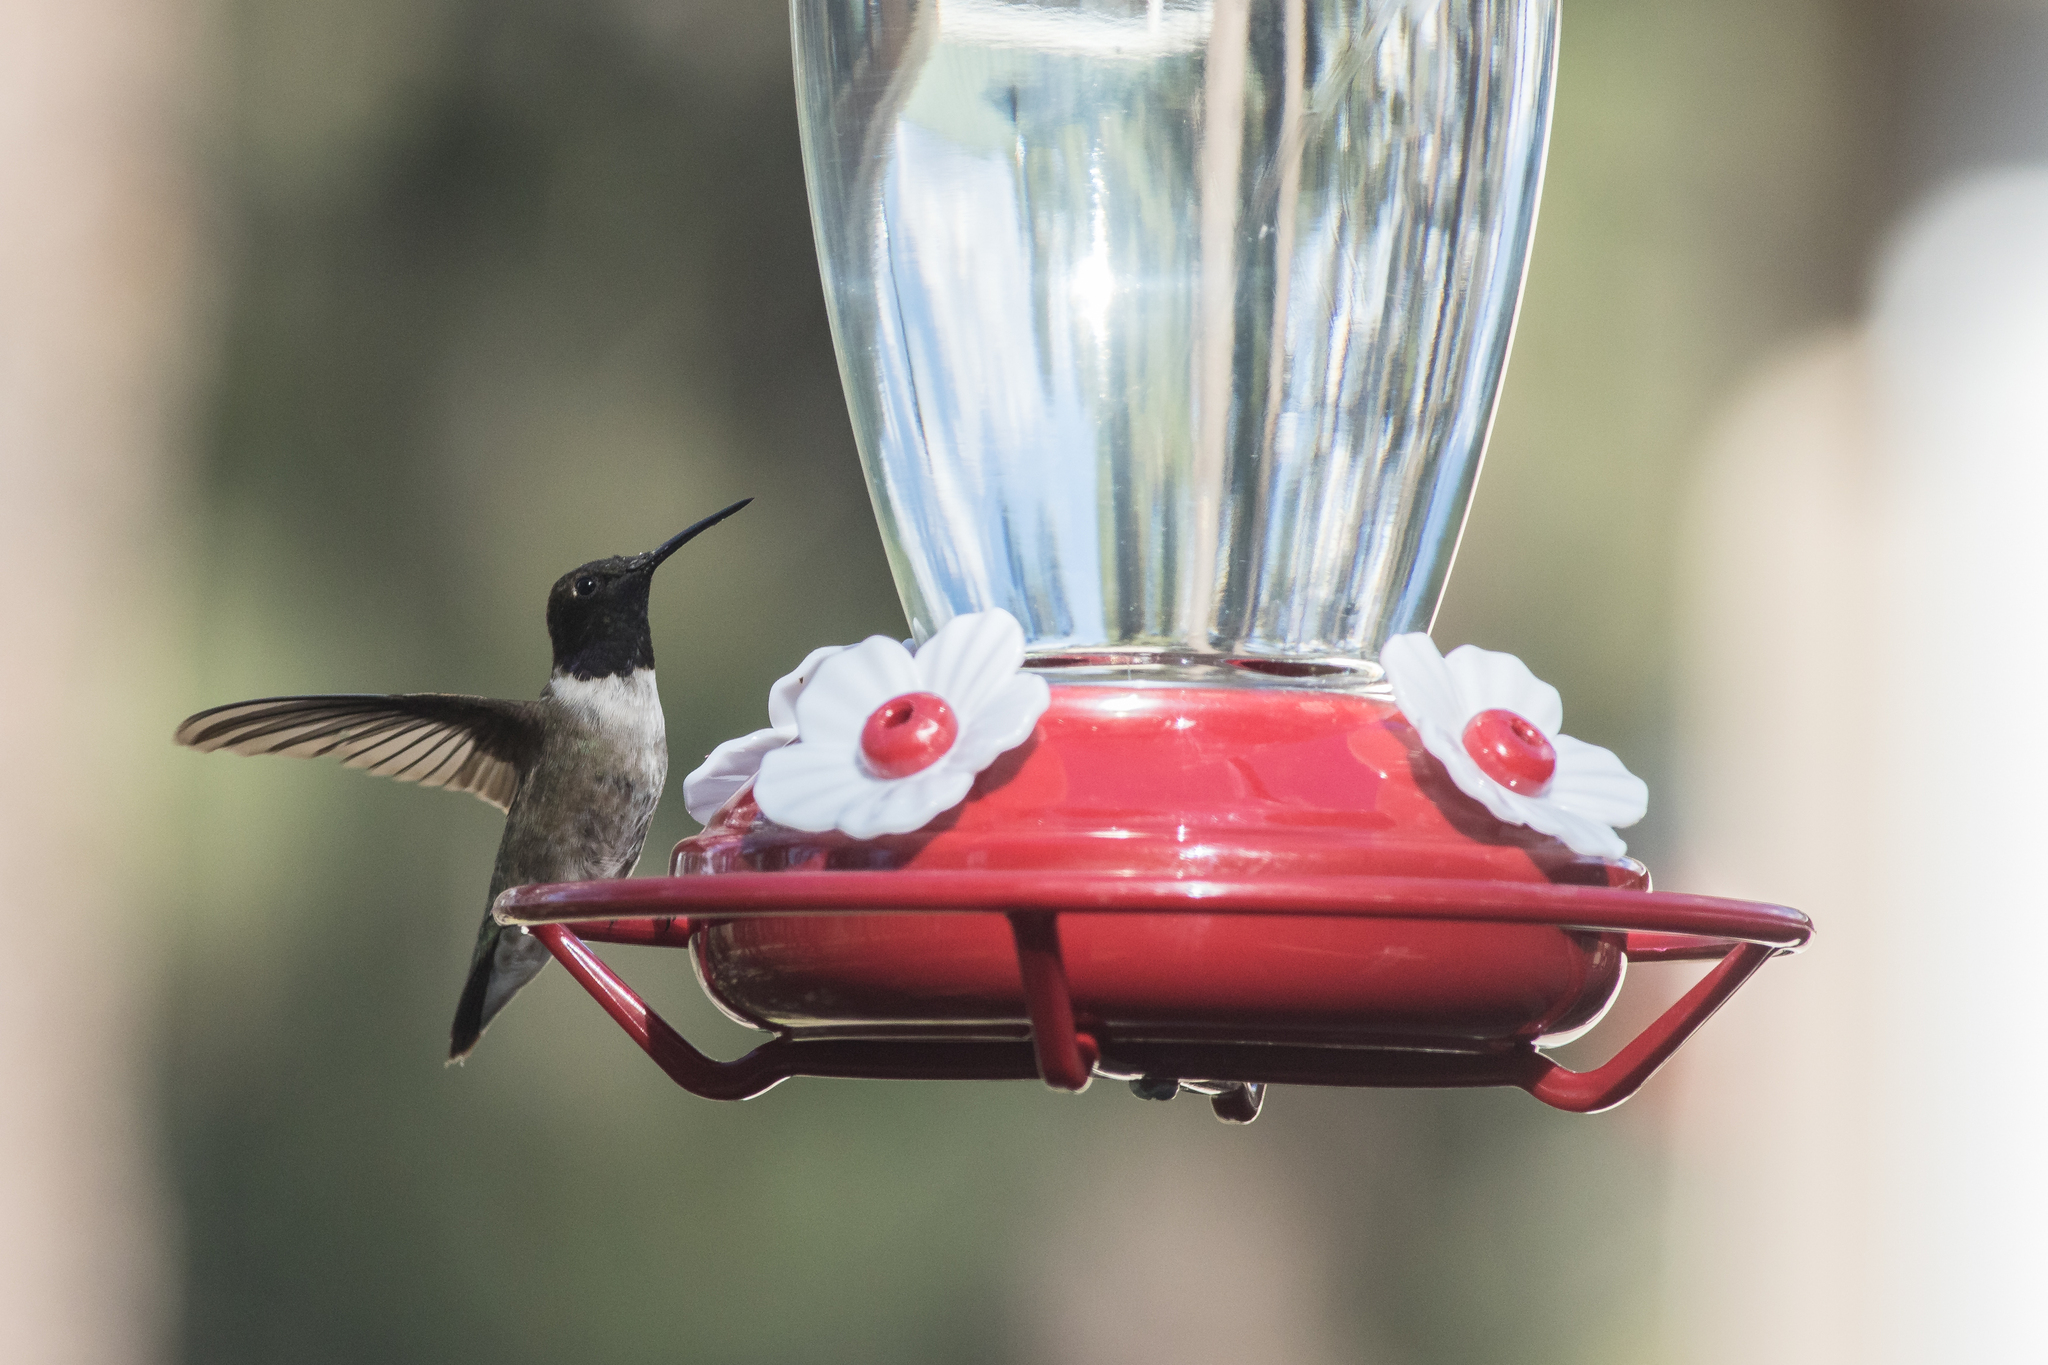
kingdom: Animalia
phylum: Chordata
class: Aves
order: Apodiformes
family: Trochilidae
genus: Archilochus
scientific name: Archilochus alexandri
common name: Black-chinned hummingbird
